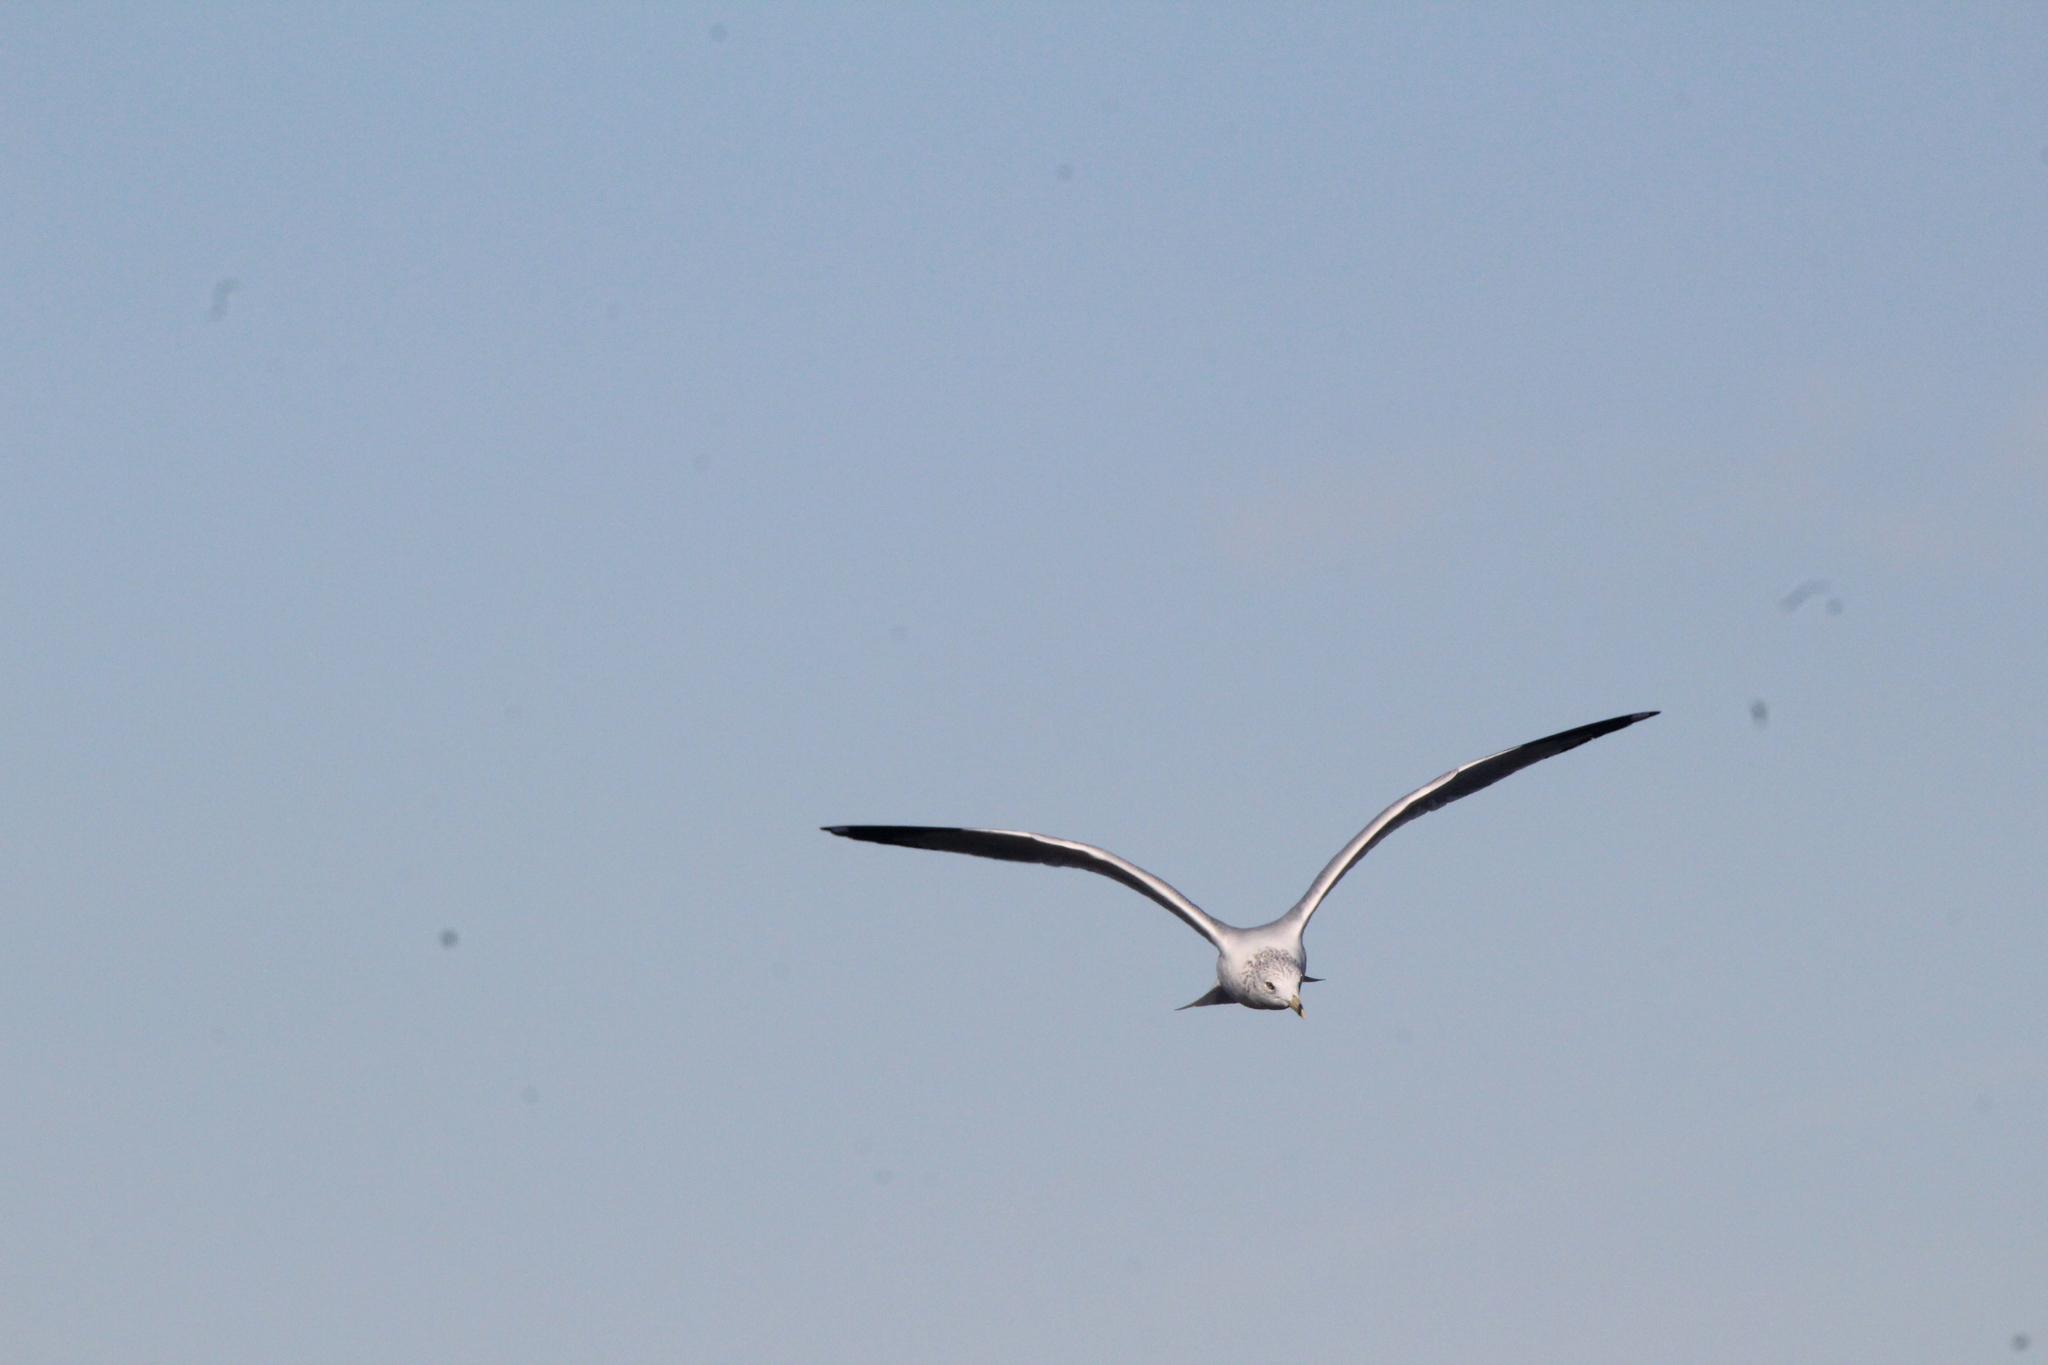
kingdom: Animalia
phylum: Chordata
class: Aves
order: Charadriiformes
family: Laridae
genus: Larus
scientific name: Larus delawarensis
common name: Ring-billed gull
